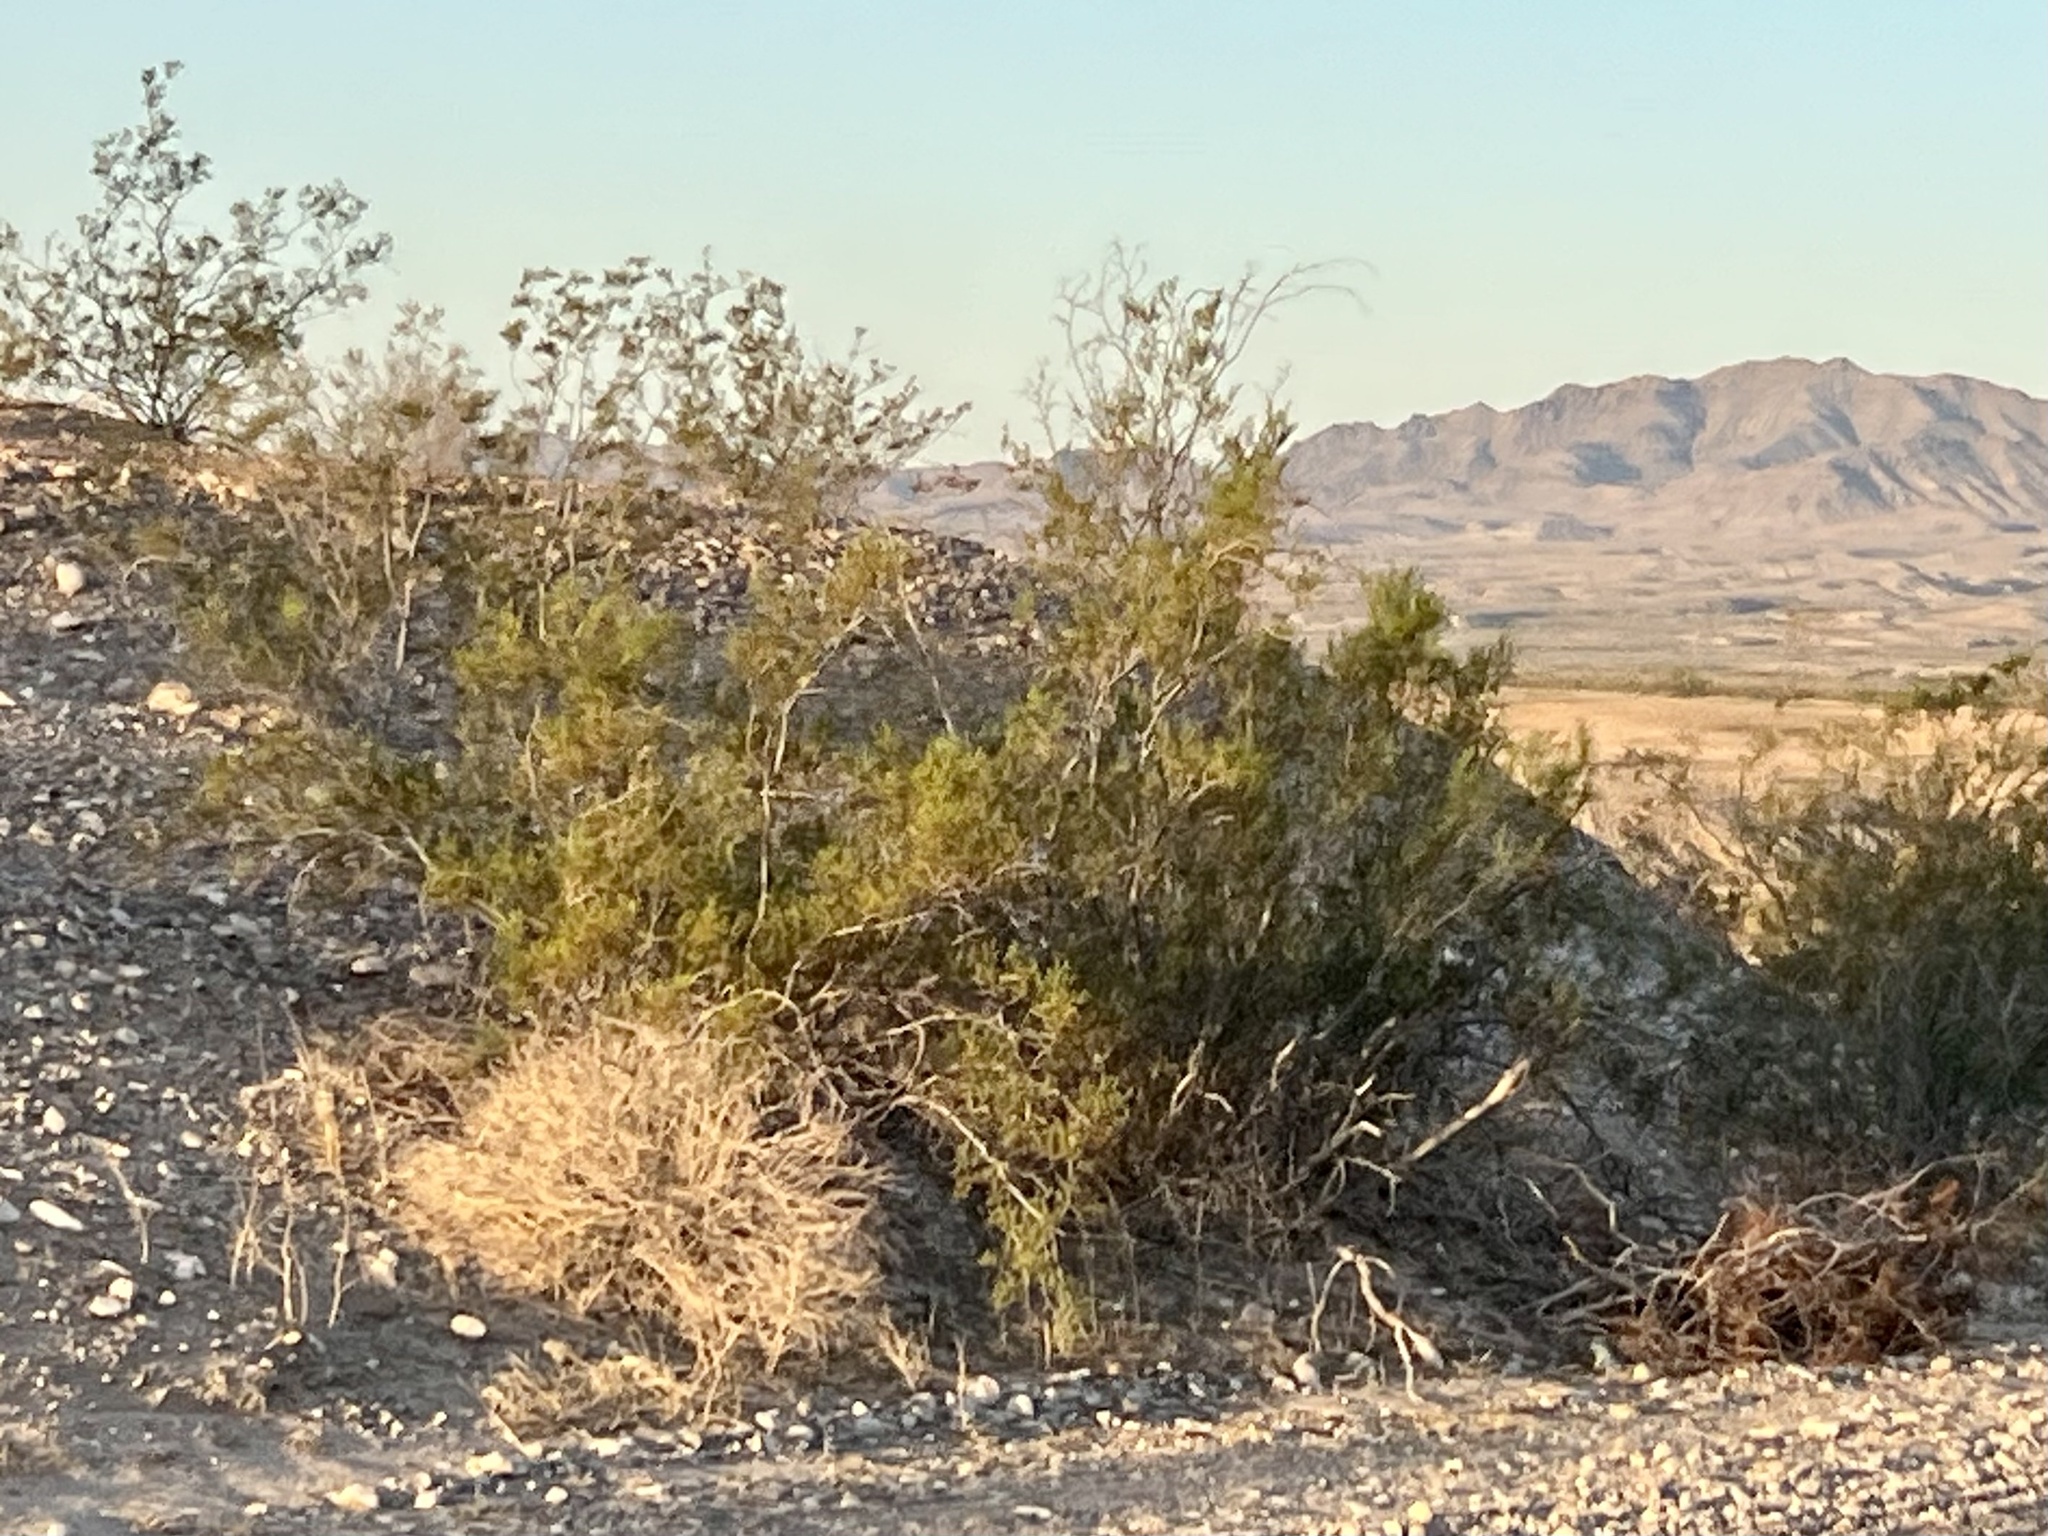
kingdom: Plantae
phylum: Tracheophyta
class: Magnoliopsida
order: Zygophyllales
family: Zygophyllaceae
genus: Larrea
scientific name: Larrea tridentata
